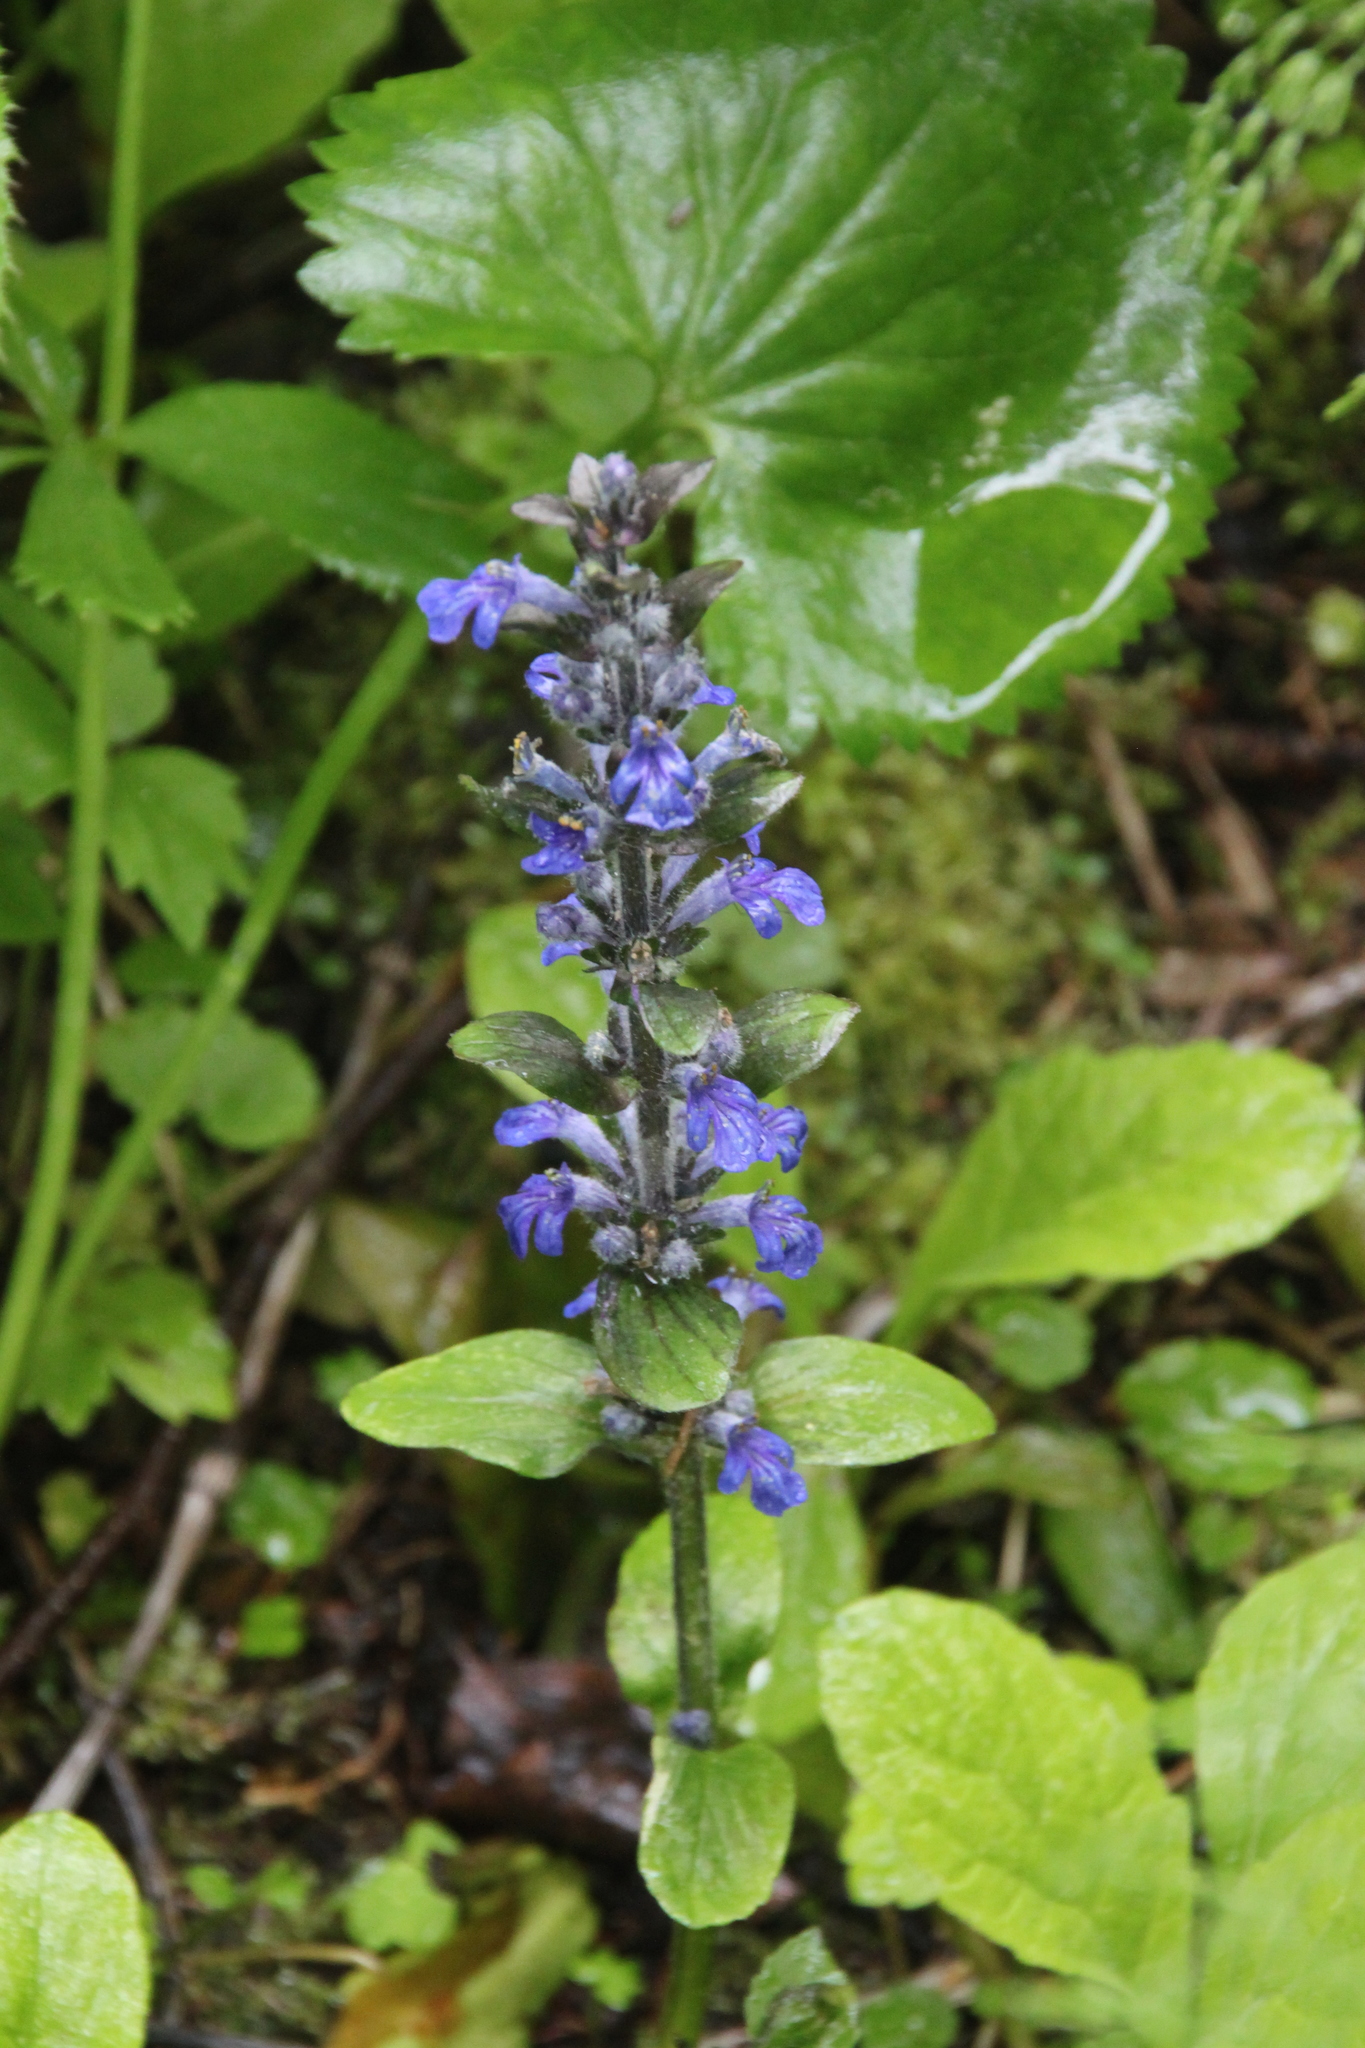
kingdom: Plantae
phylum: Tracheophyta
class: Magnoliopsida
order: Lamiales
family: Lamiaceae
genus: Ajuga
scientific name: Ajuga reptans
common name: Bugle
